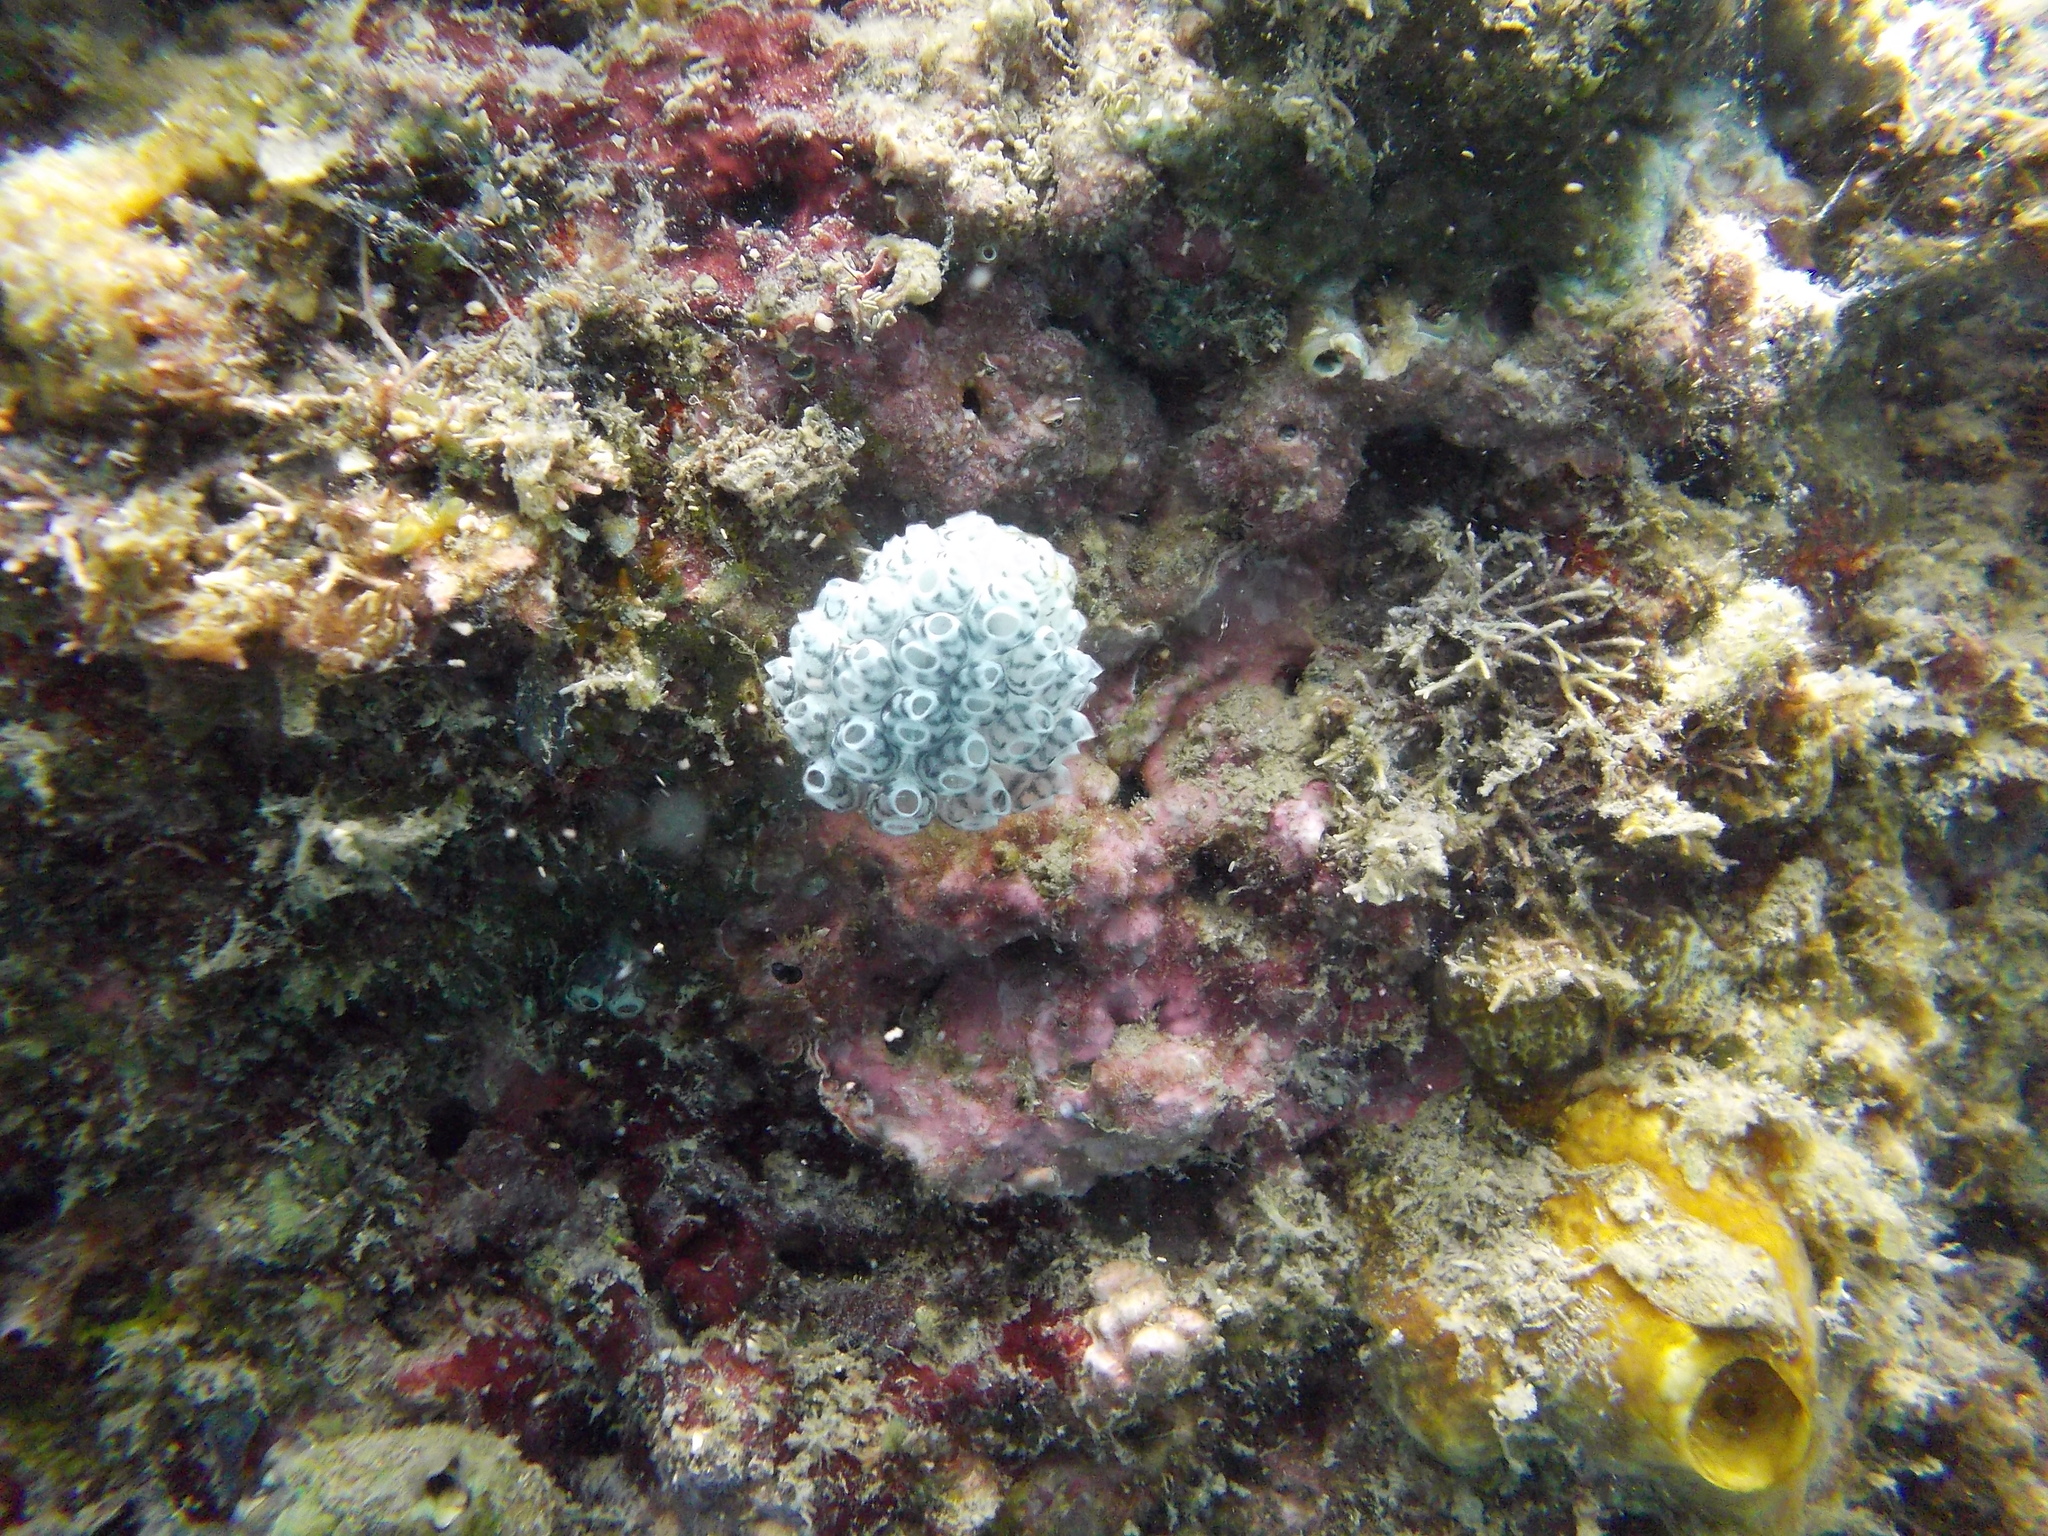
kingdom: Animalia
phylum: Chordata
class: Ascidiacea
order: Aplousobranchia
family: Clavelinidae
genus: Nephtheis
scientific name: Nephtheis fascicularis
